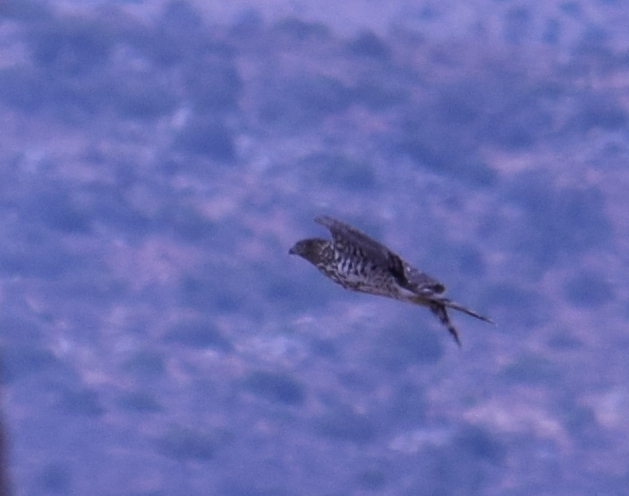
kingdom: Animalia
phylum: Chordata
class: Aves
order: Accipitriformes
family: Accipitridae
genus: Accipiter
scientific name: Accipiter cooperii
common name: Cooper's hawk
